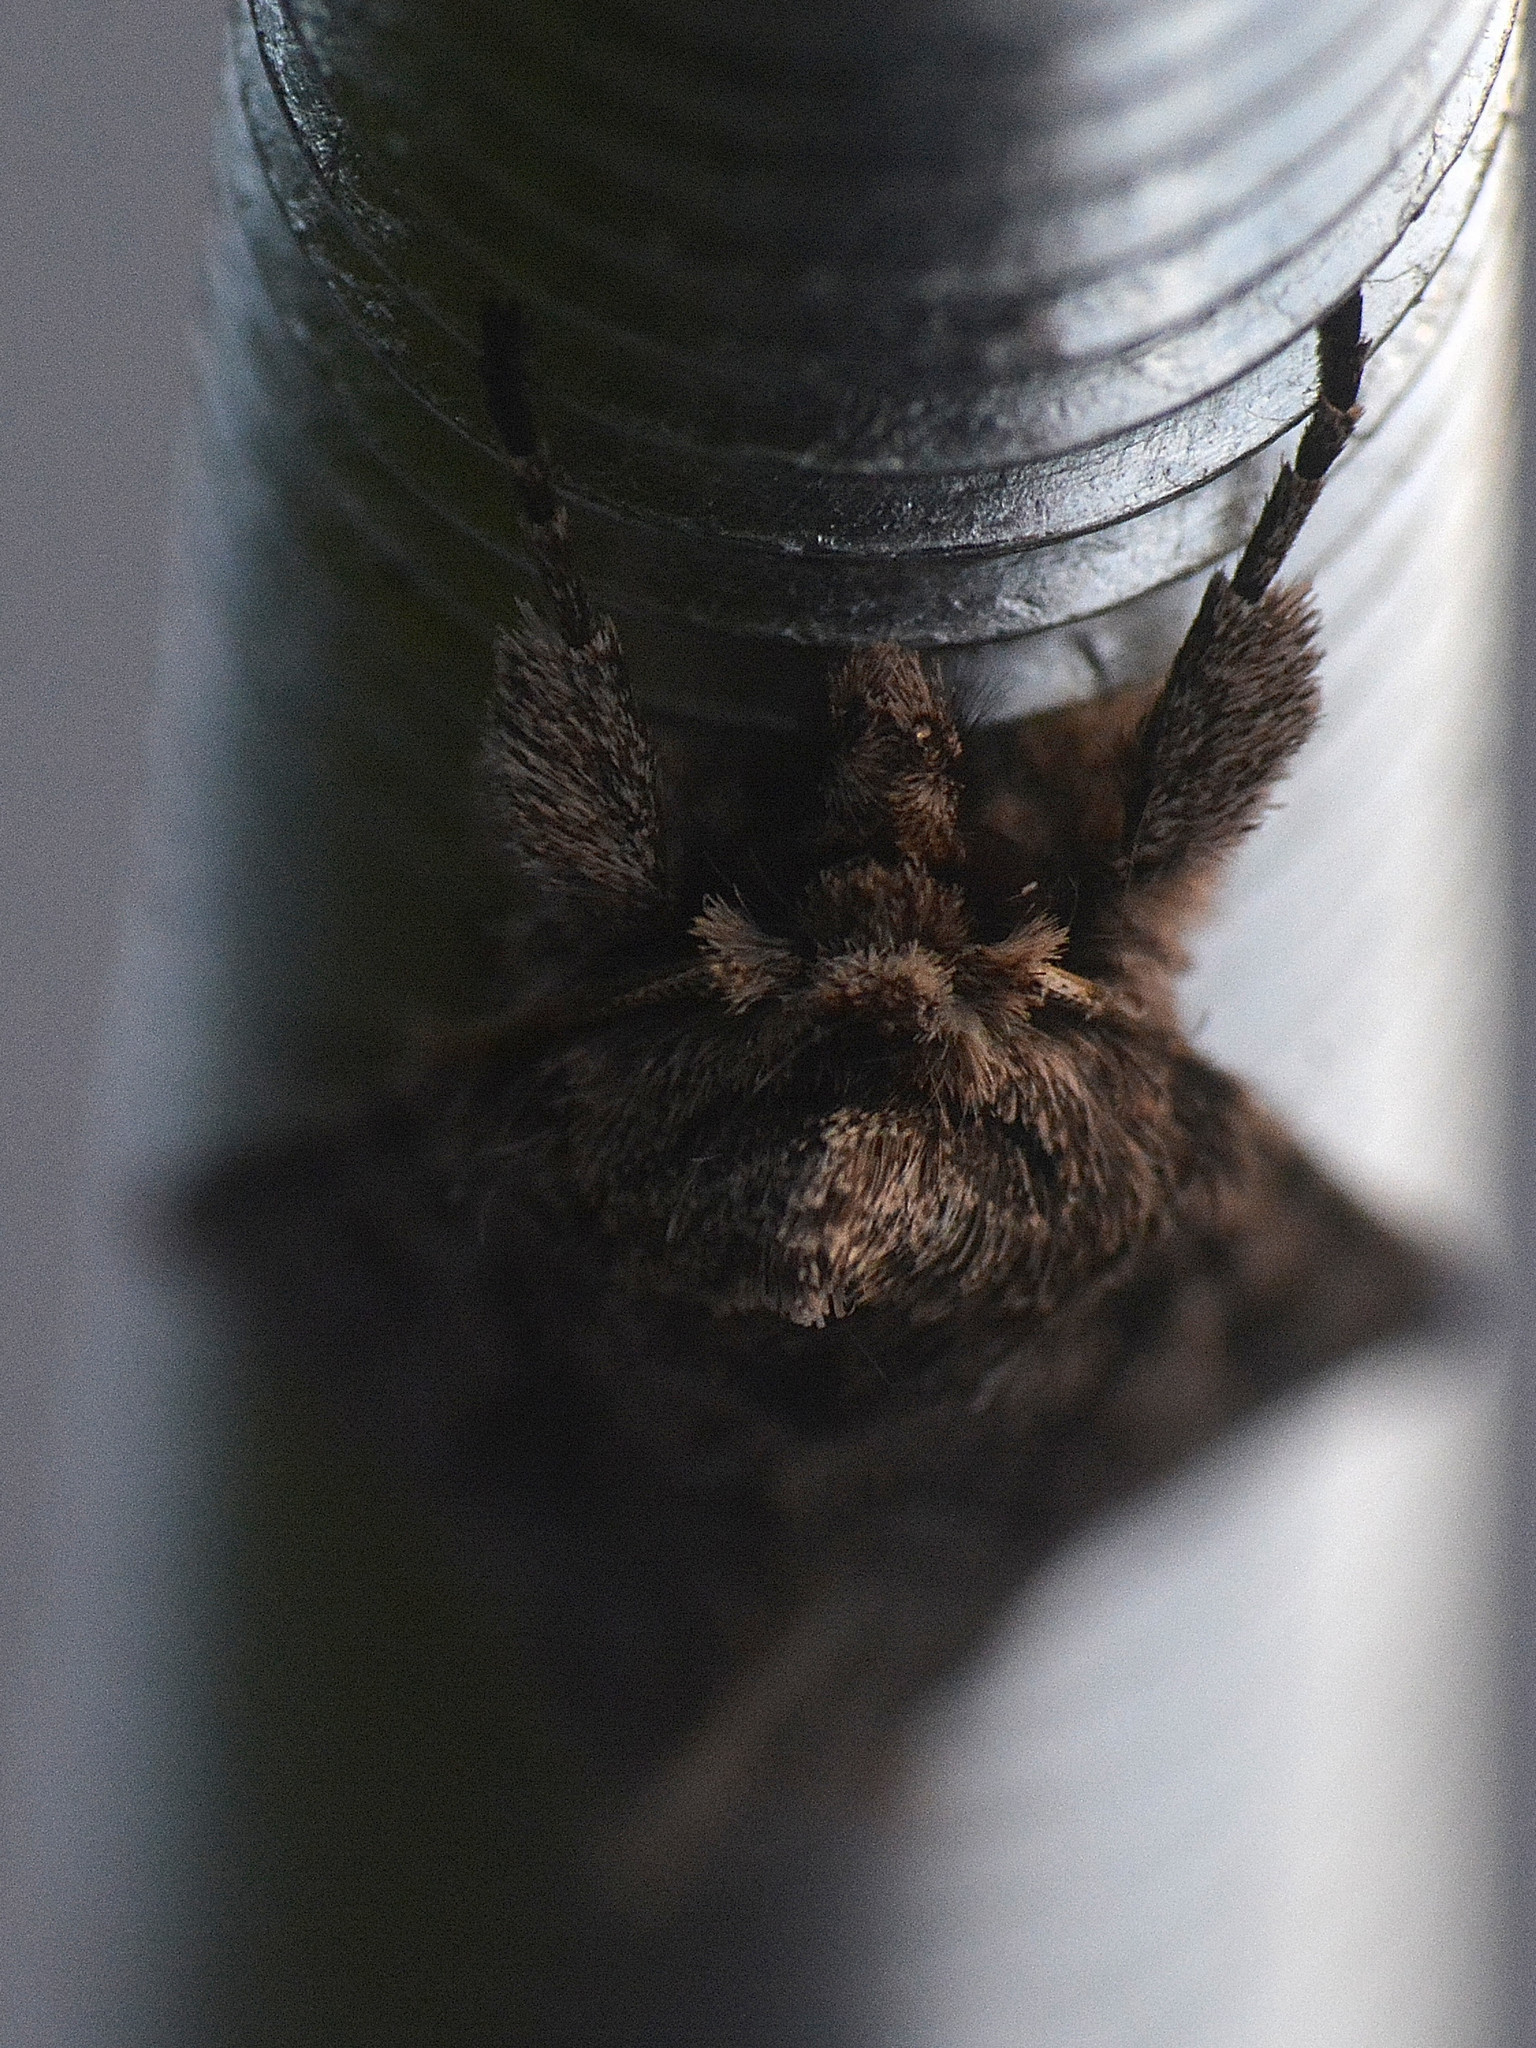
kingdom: Animalia
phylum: Arthropoda
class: Insecta
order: Lepidoptera
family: Noctuidae
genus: Xylocampa
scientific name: Xylocampa areola
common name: Early grey
